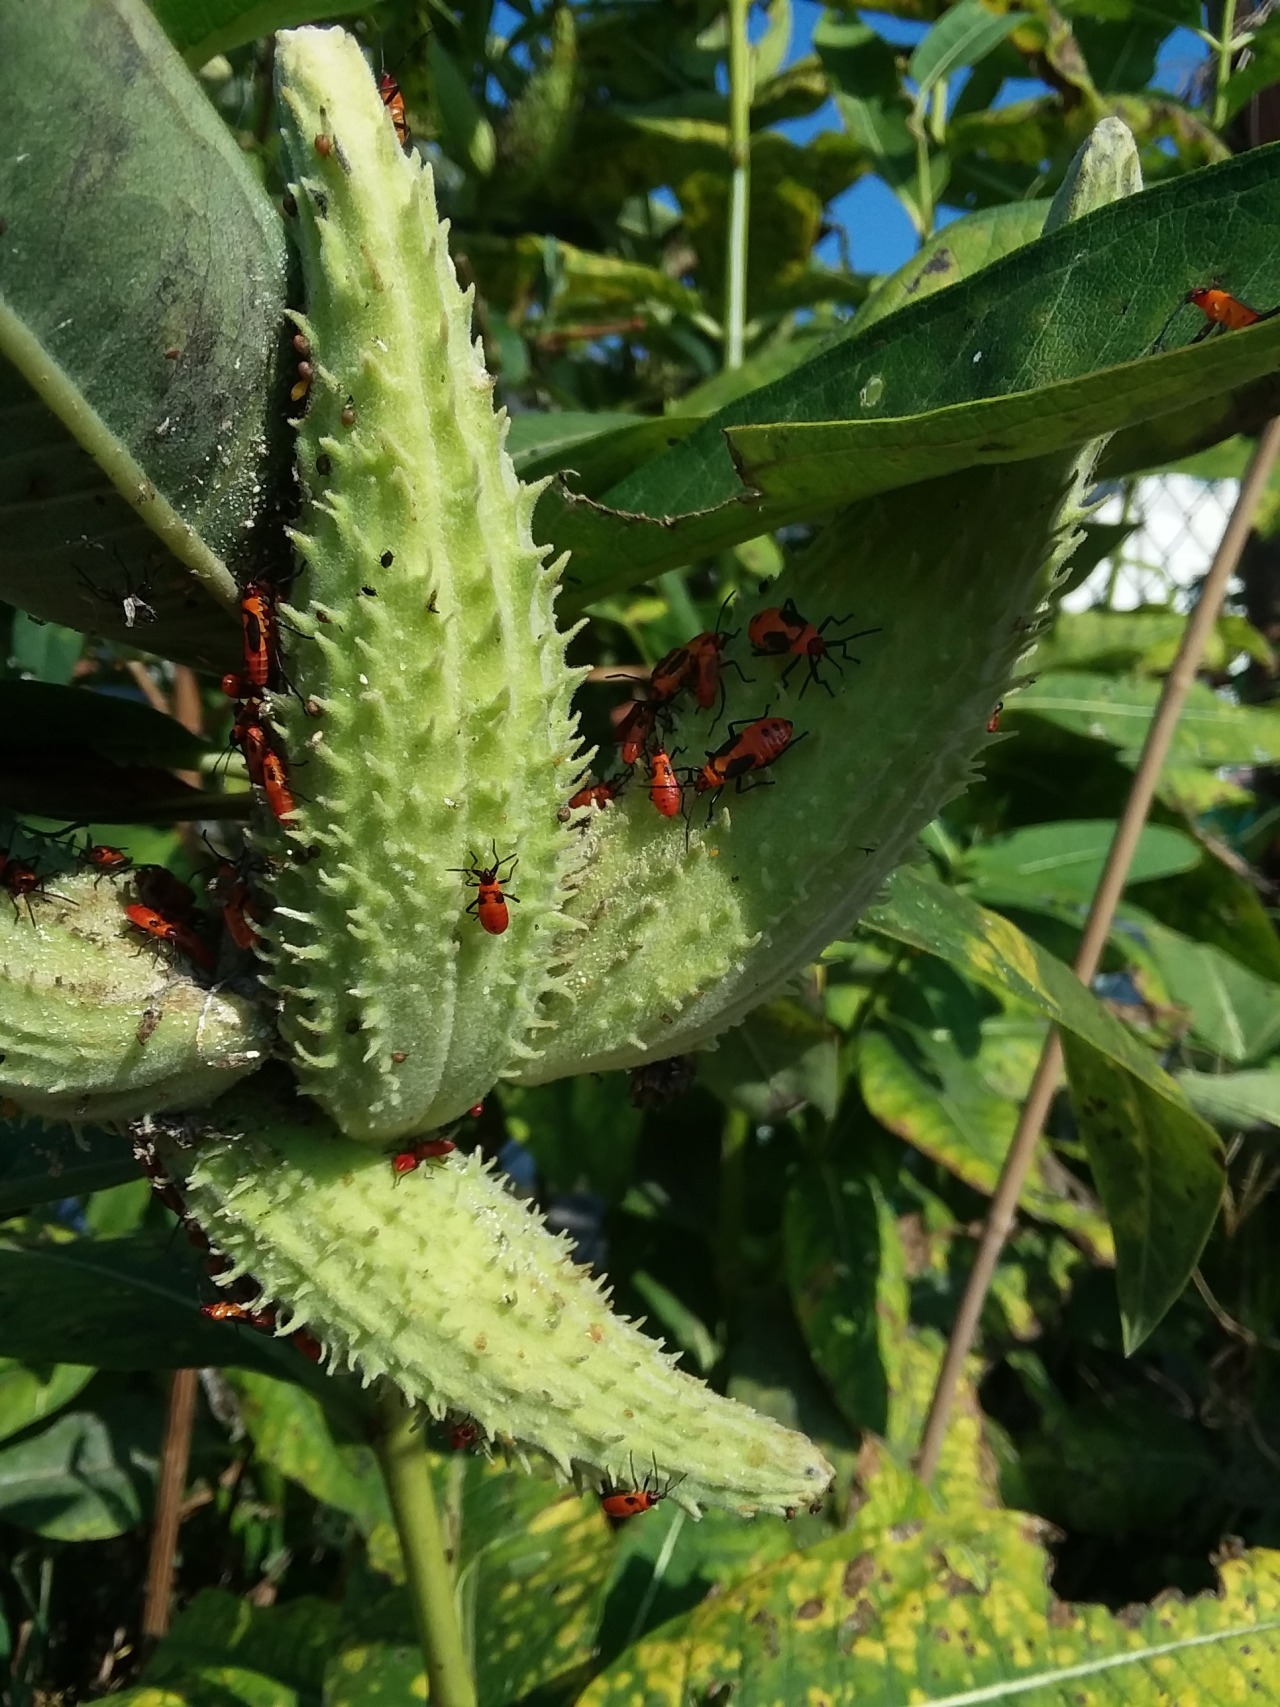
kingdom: Animalia
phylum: Arthropoda
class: Insecta
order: Hemiptera
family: Lygaeidae
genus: Oncopeltus
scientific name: Oncopeltus fasciatus
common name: Large milkweed bug
